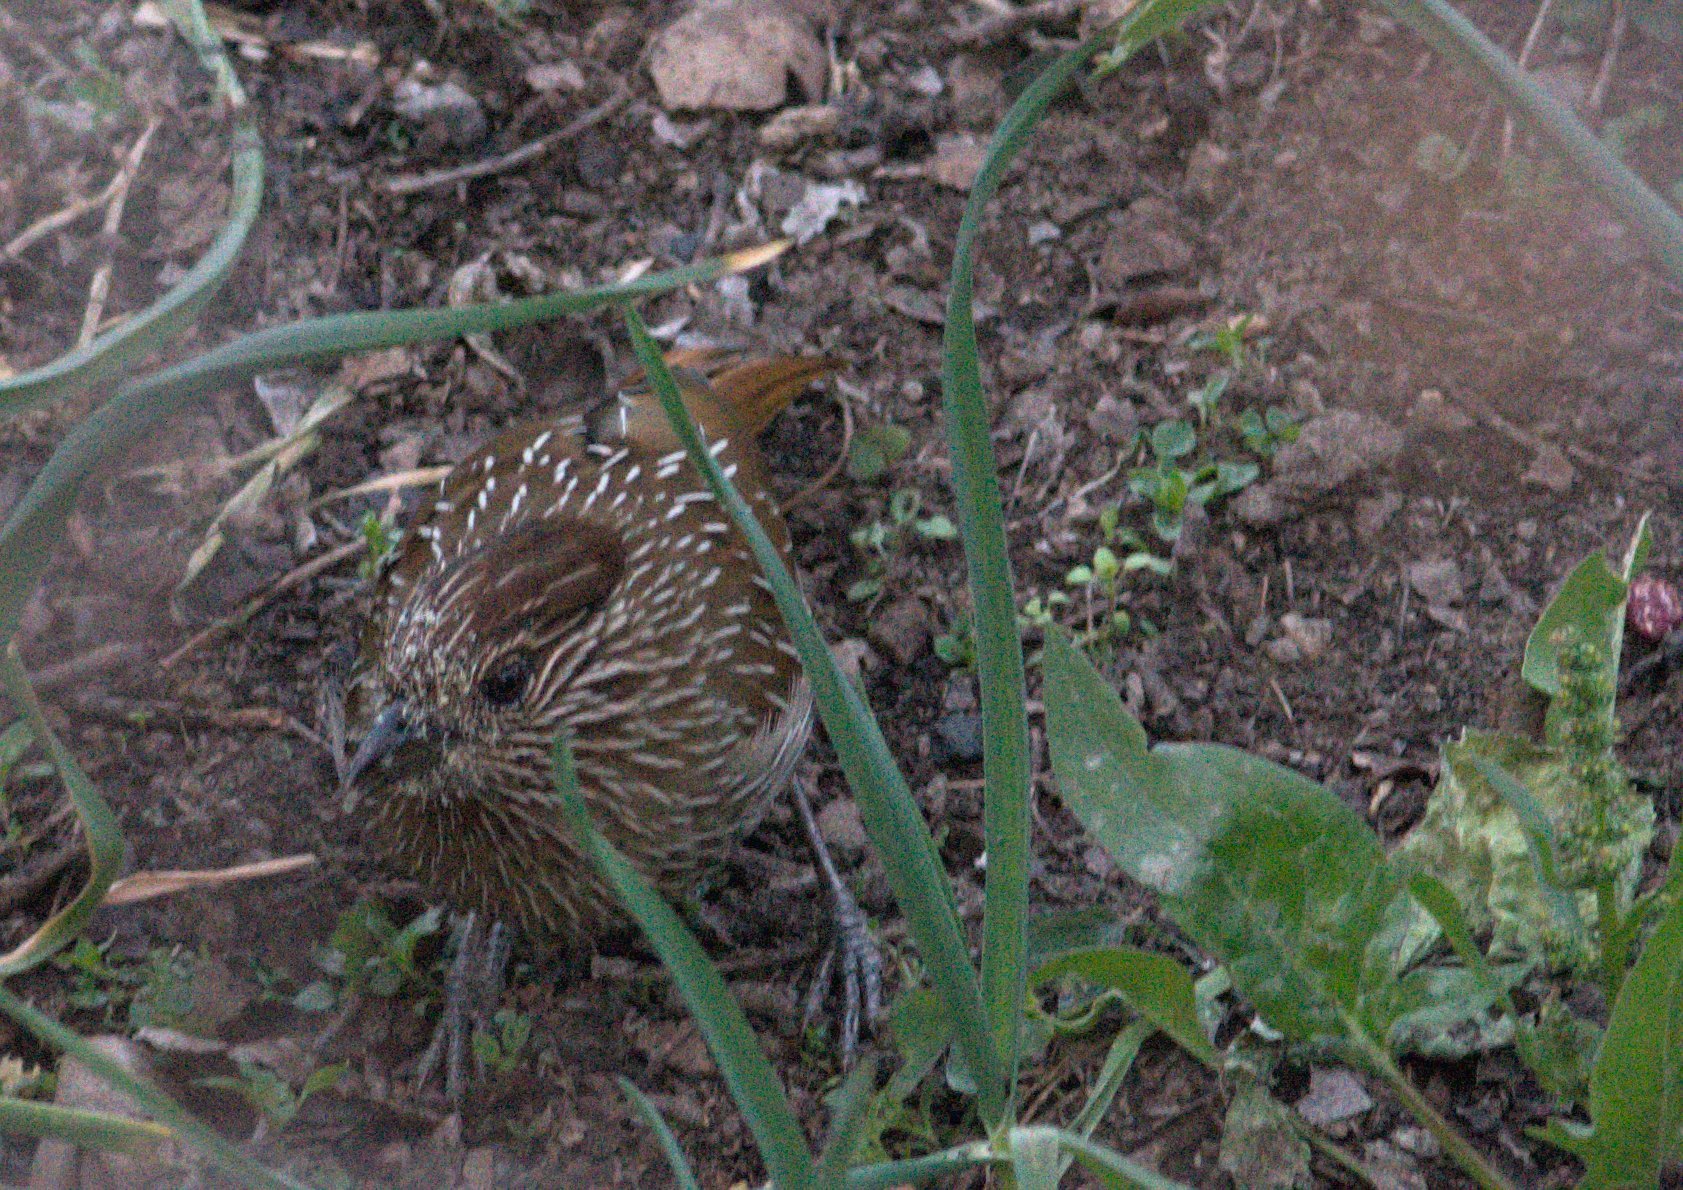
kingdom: Animalia
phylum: Chordata
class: Aves
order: Passeriformes
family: Leiothrichidae
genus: Garrulax
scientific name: Garrulax striatus
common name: Striated laughingthrush
